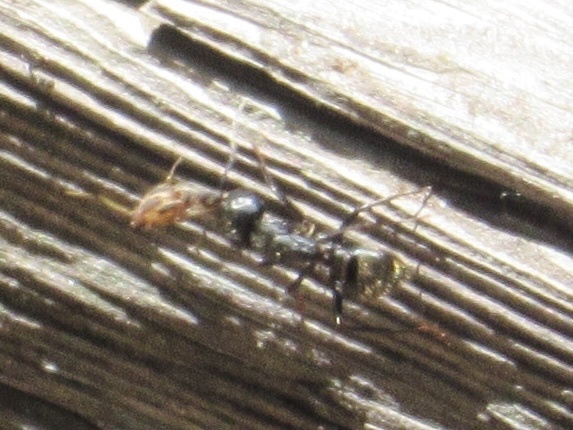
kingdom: Animalia
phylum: Arthropoda
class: Insecta
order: Hymenoptera
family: Formicidae
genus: Camponotus
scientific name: Camponotus pennsylvanicus
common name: Black carpenter ant
